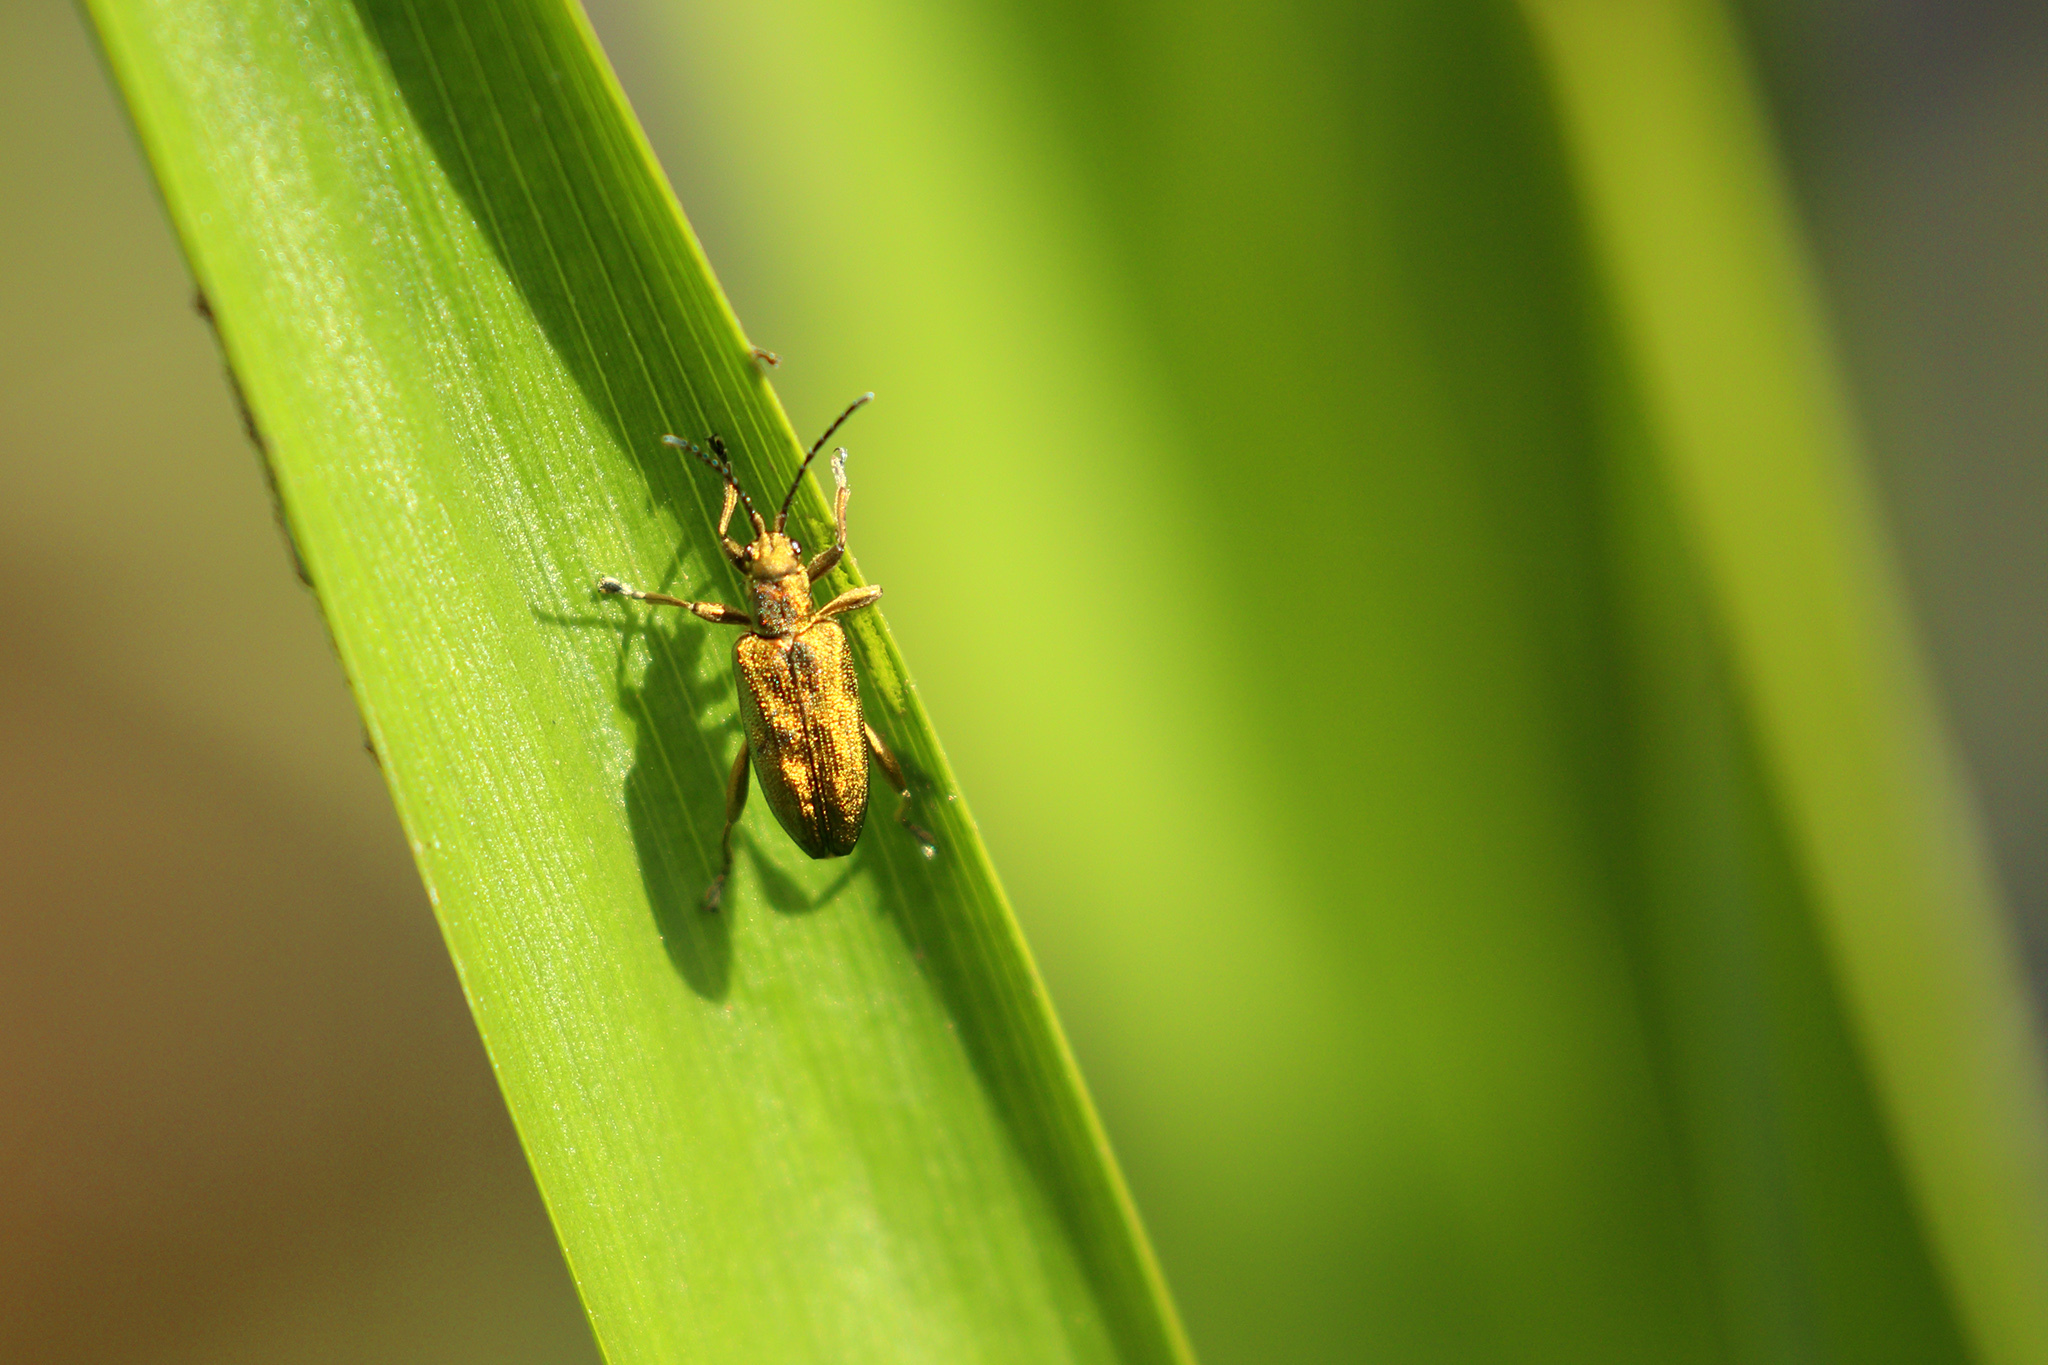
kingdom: Animalia
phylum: Arthropoda
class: Insecta
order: Coleoptera
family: Chrysomelidae
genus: Donacia
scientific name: Donacia bicolora
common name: Reed beetle
